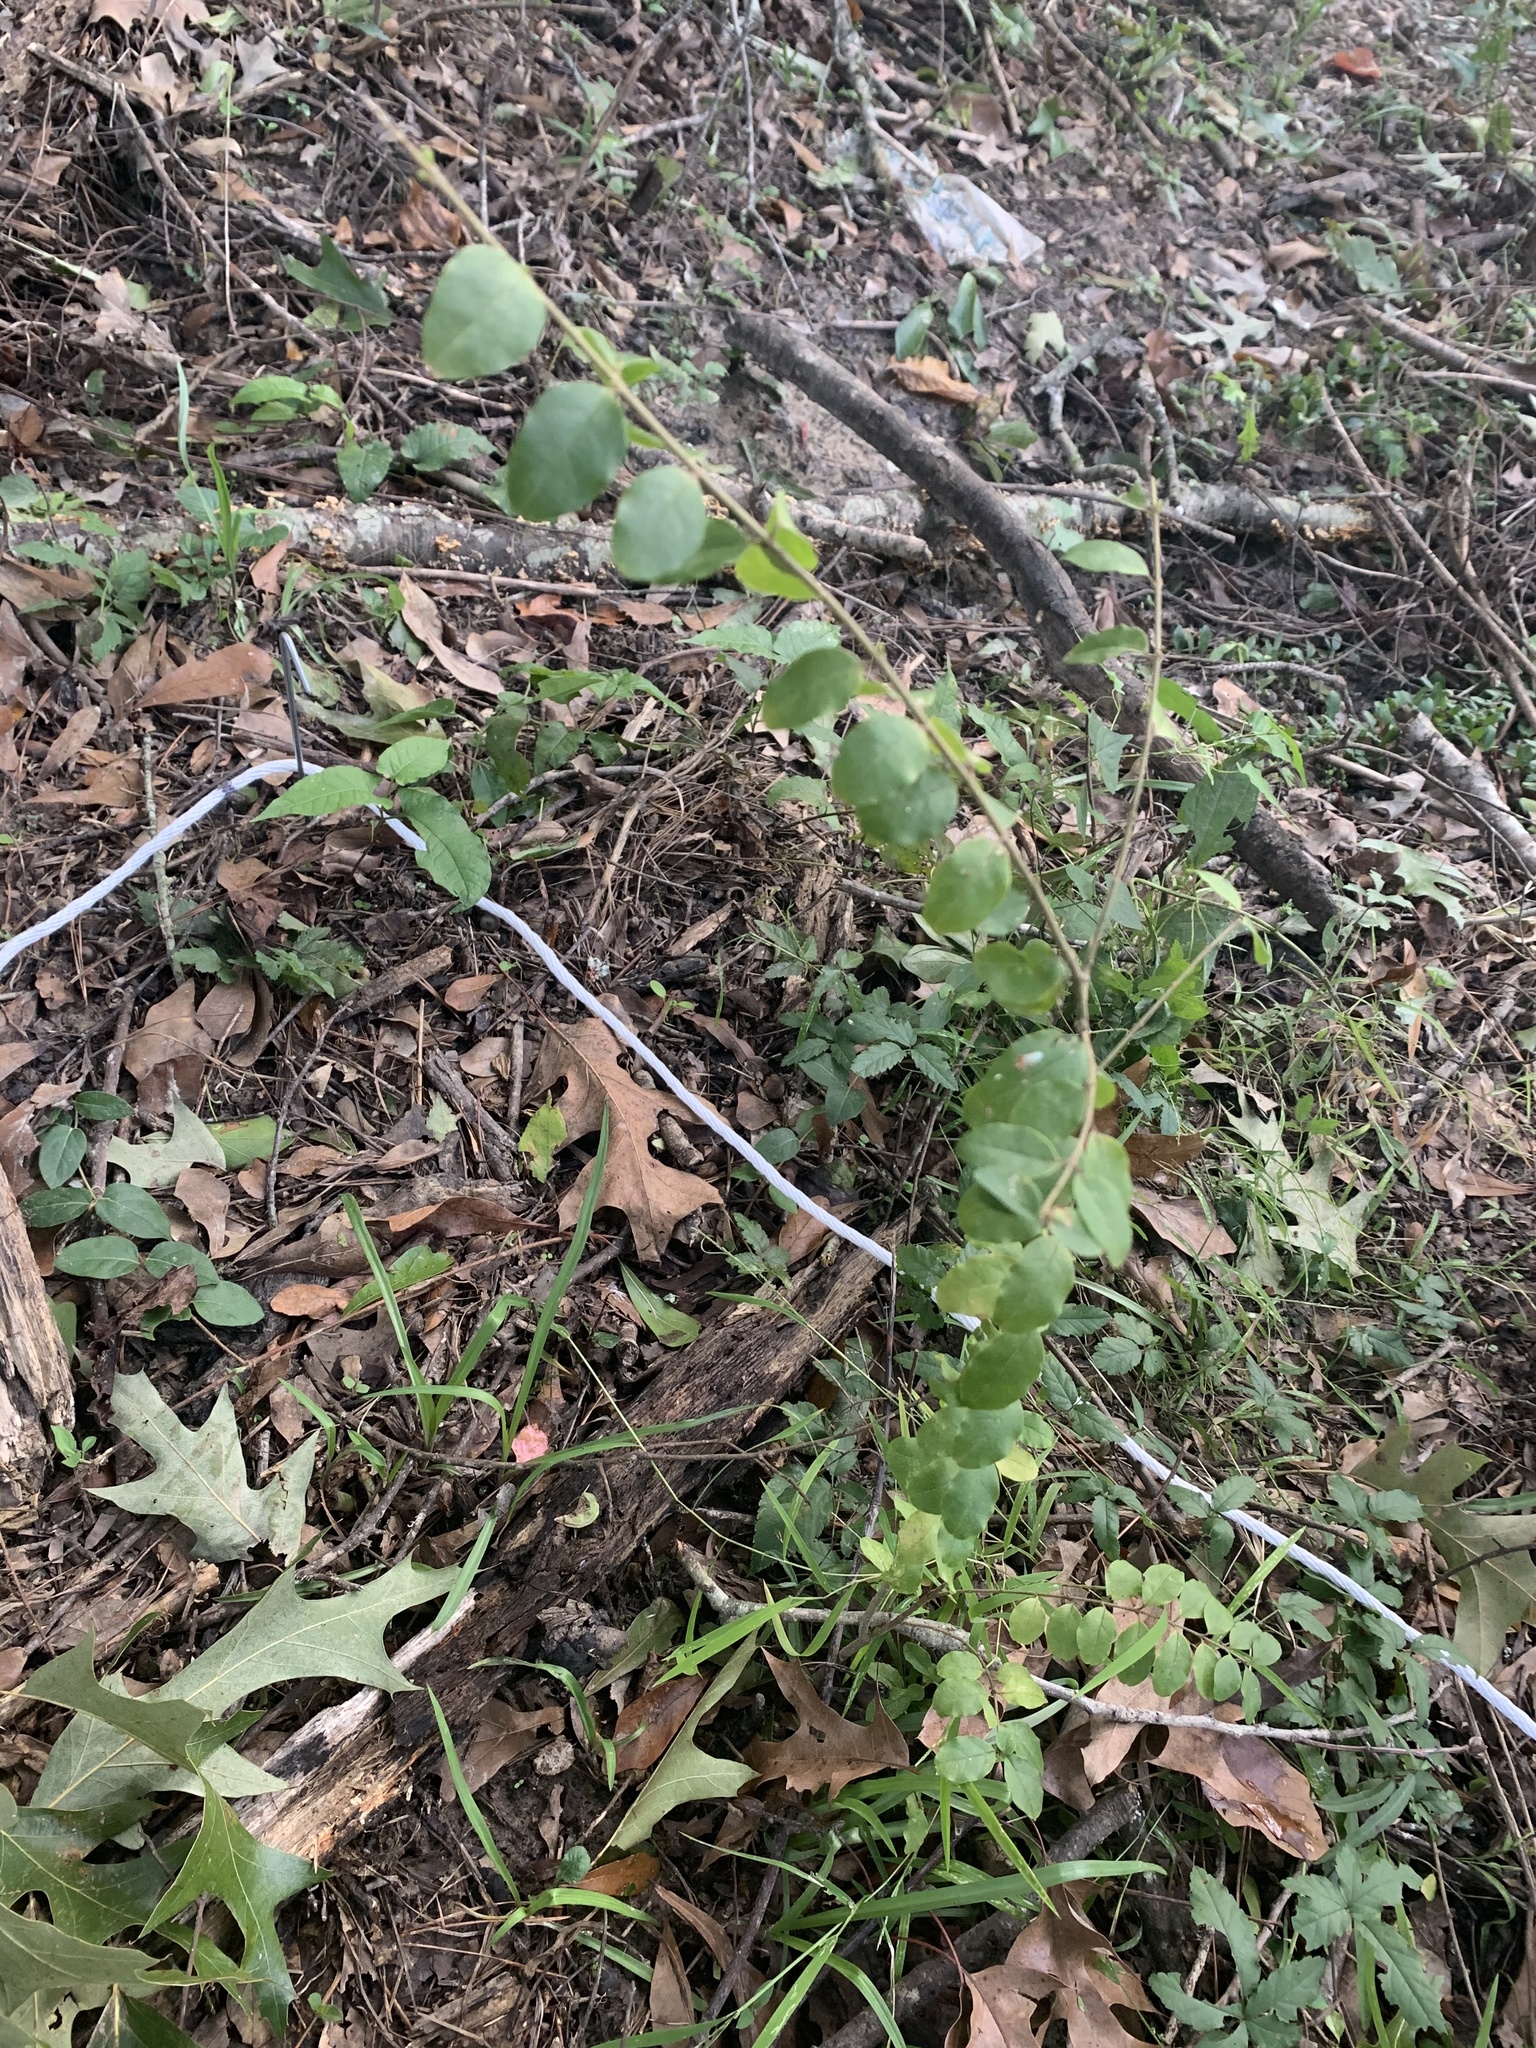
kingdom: Plantae
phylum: Tracheophyta
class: Magnoliopsida
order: Lamiales
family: Oleaceae
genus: Ligustrum
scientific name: Ligustrum sinense
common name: Chinese privet
